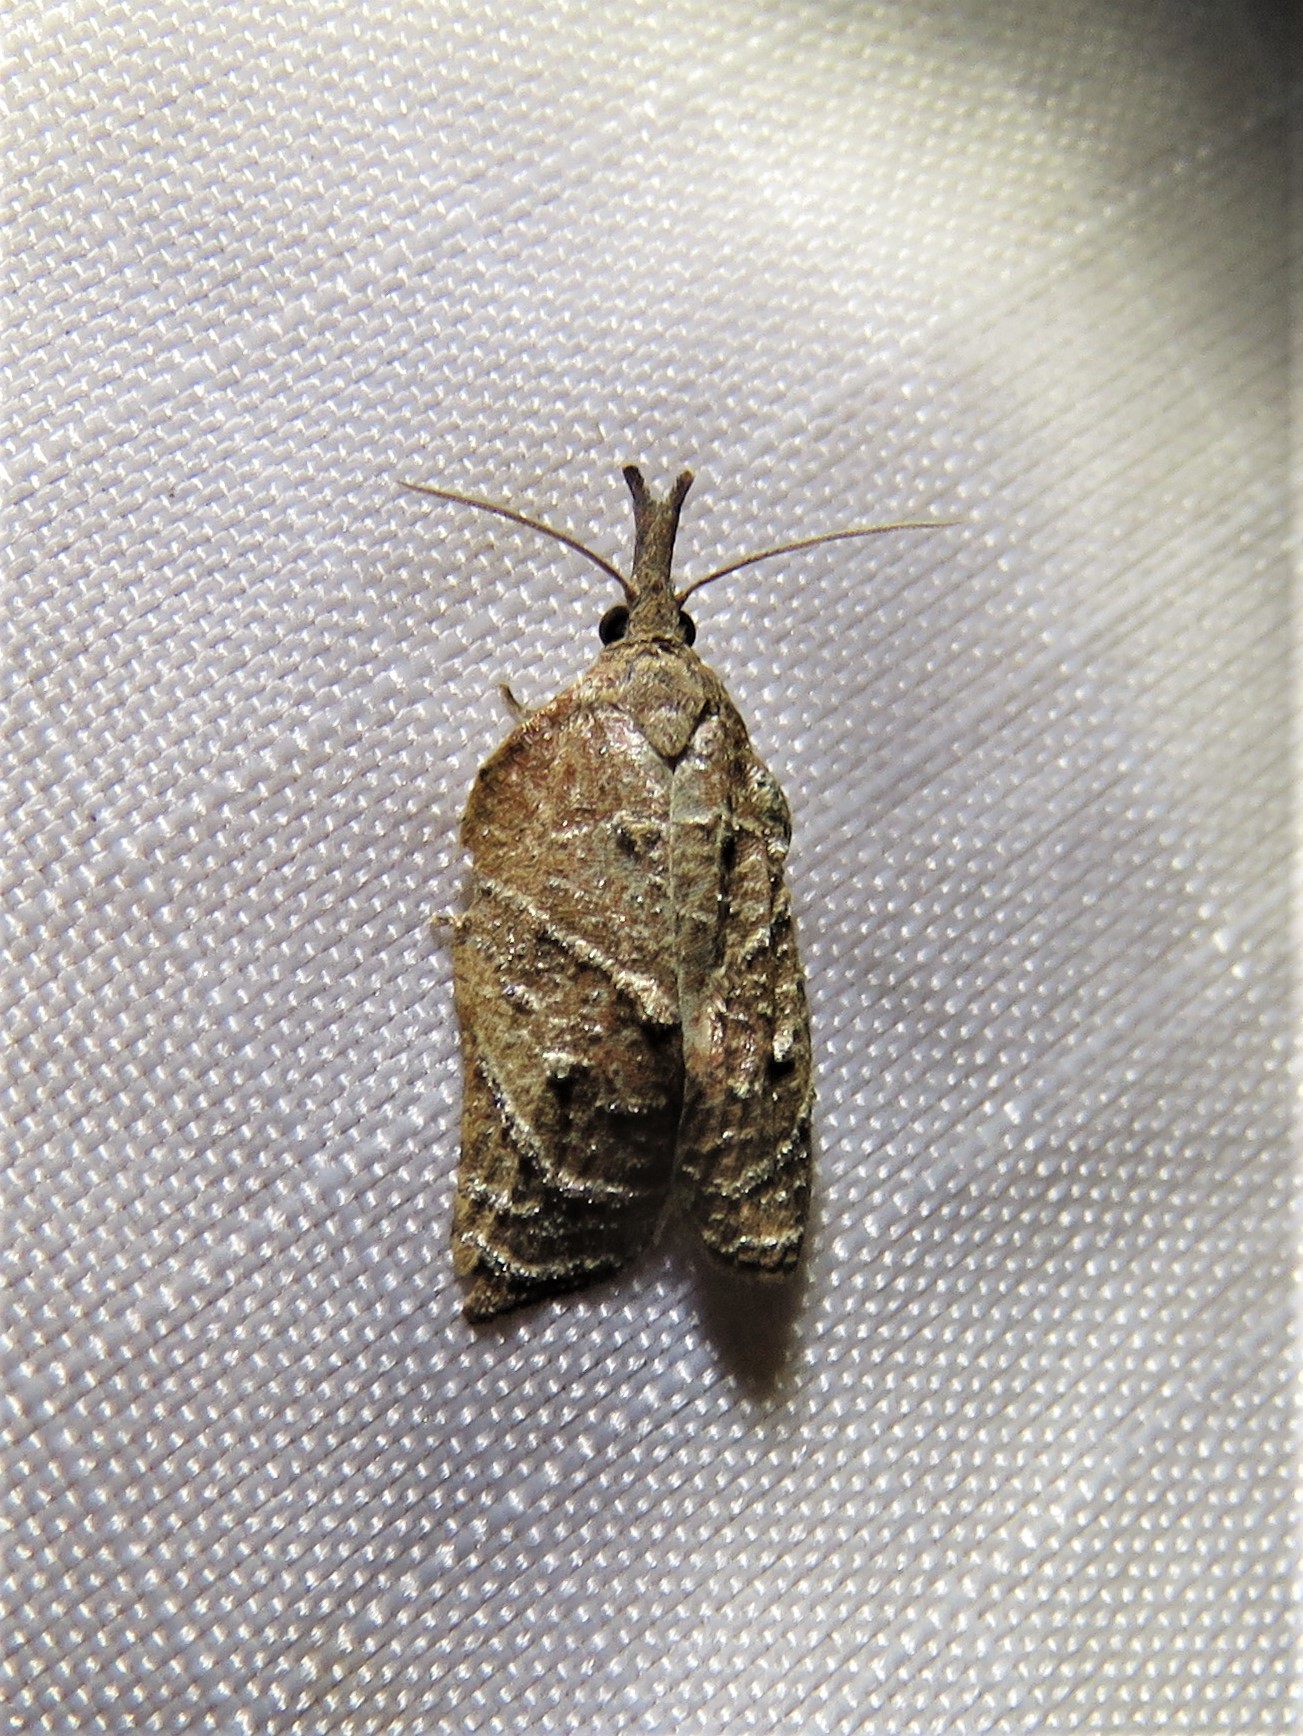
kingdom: Animalia
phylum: Arthropoda
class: Insecta
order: Lepidoptera
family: Tortricidae
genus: Platynota
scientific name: Platynota rostrana
